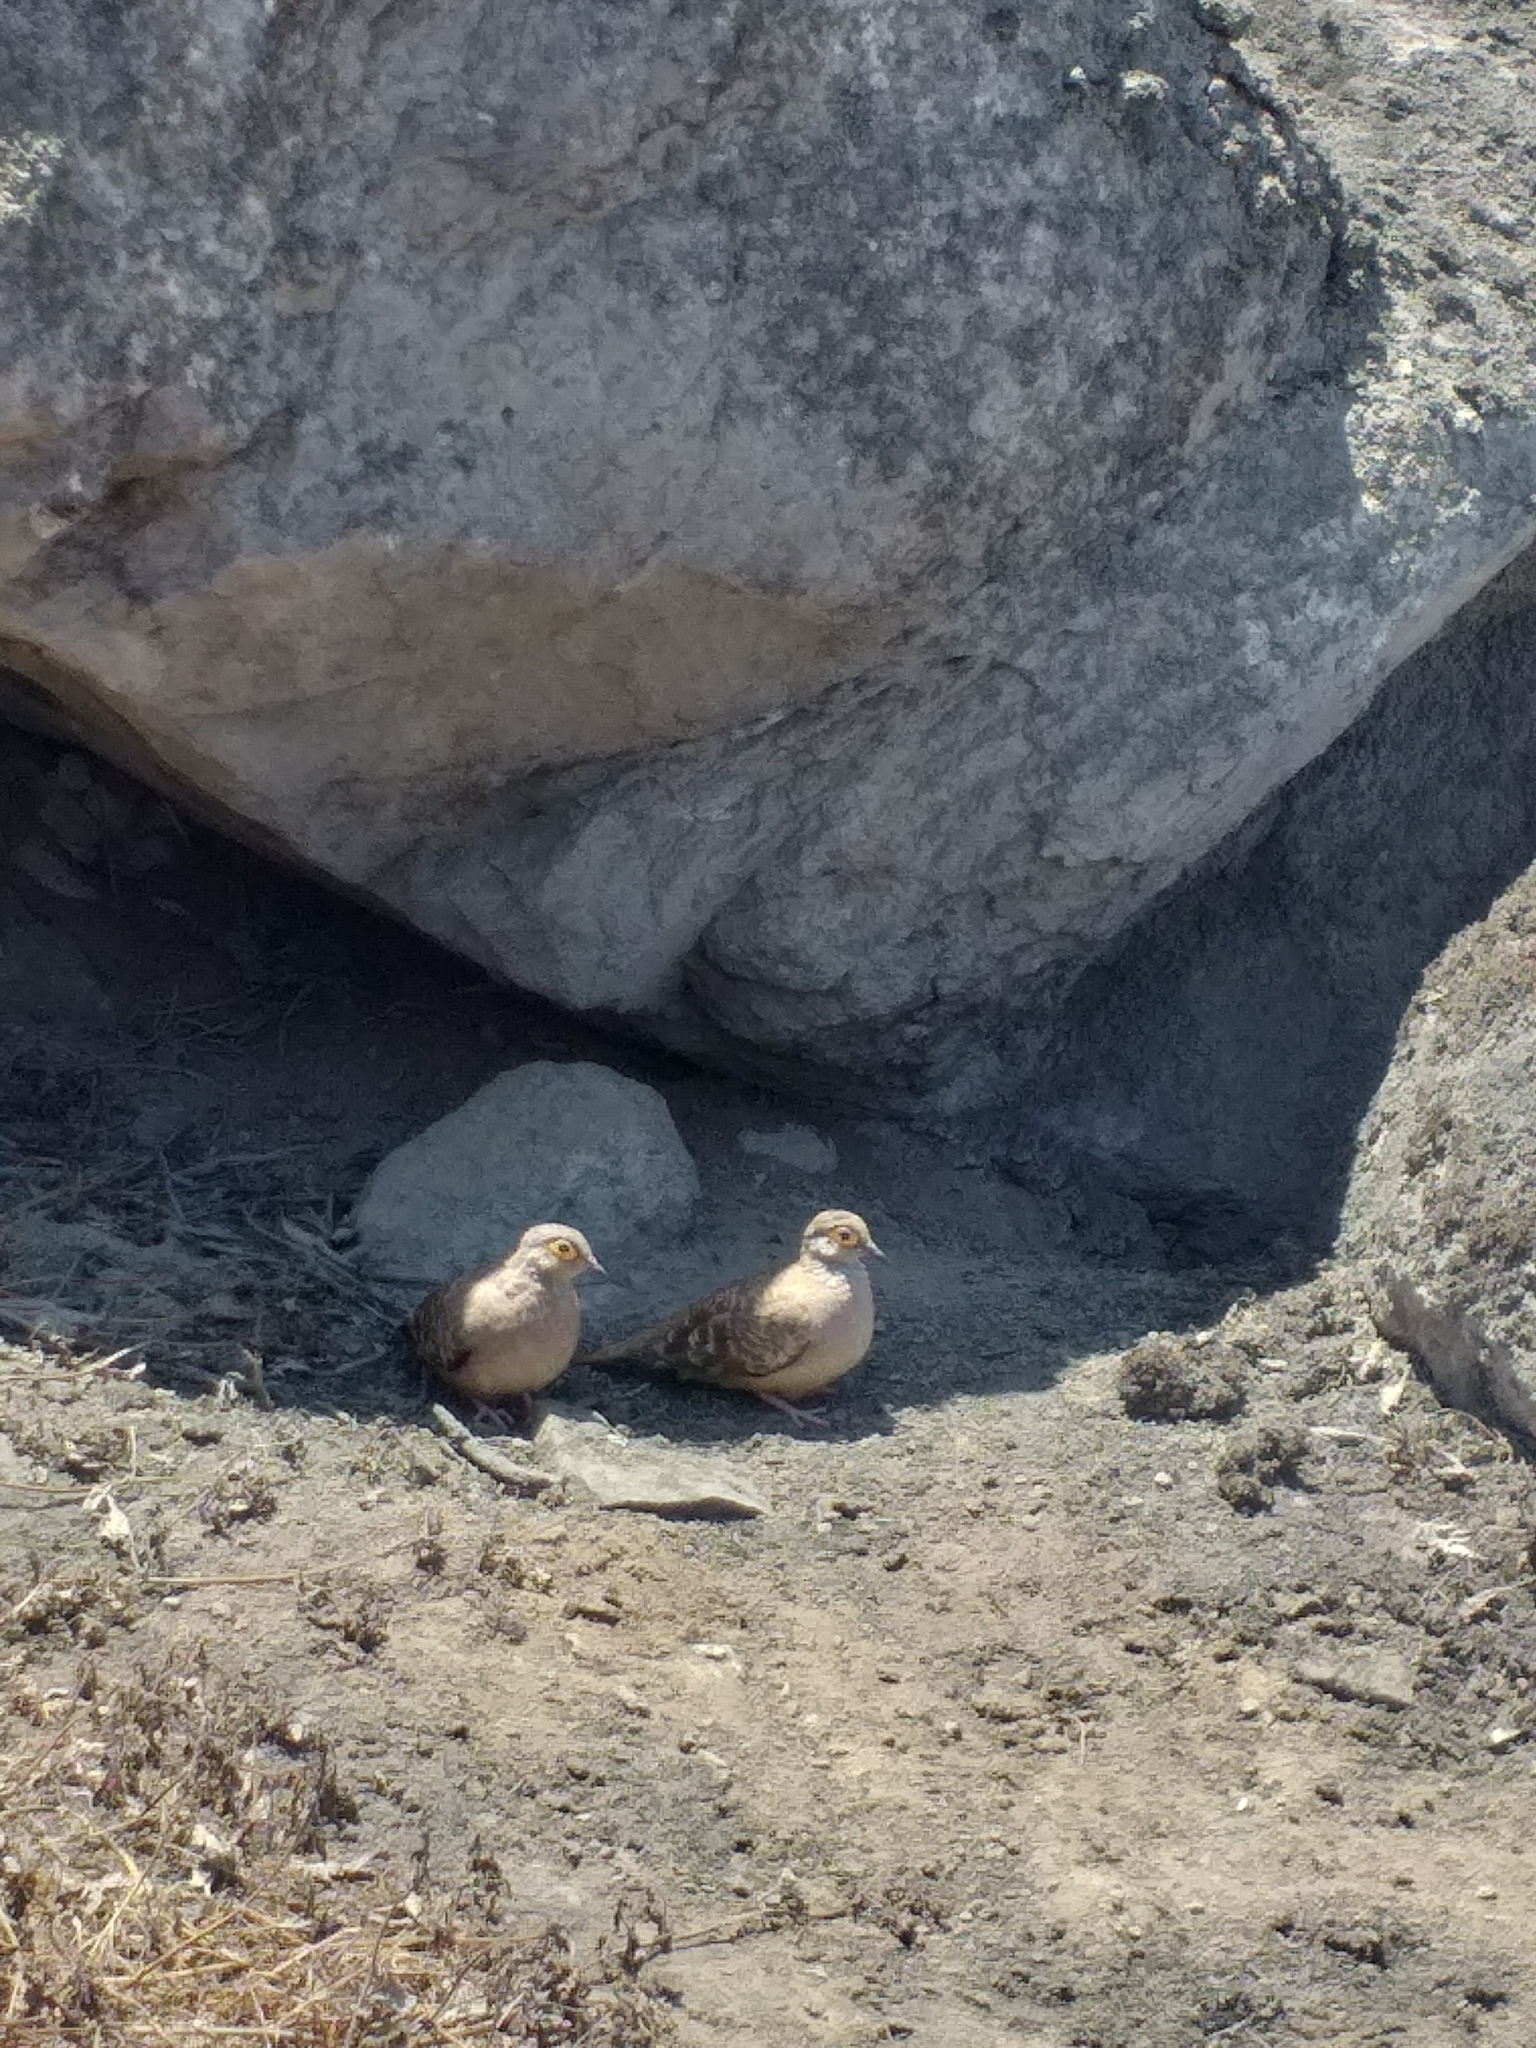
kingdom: Animalia
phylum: Chordata
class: Aves
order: Columbiformes
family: Columbidae
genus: Metriopelia
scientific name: Metriopelia ceciliae
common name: Bare-faced ground dove
